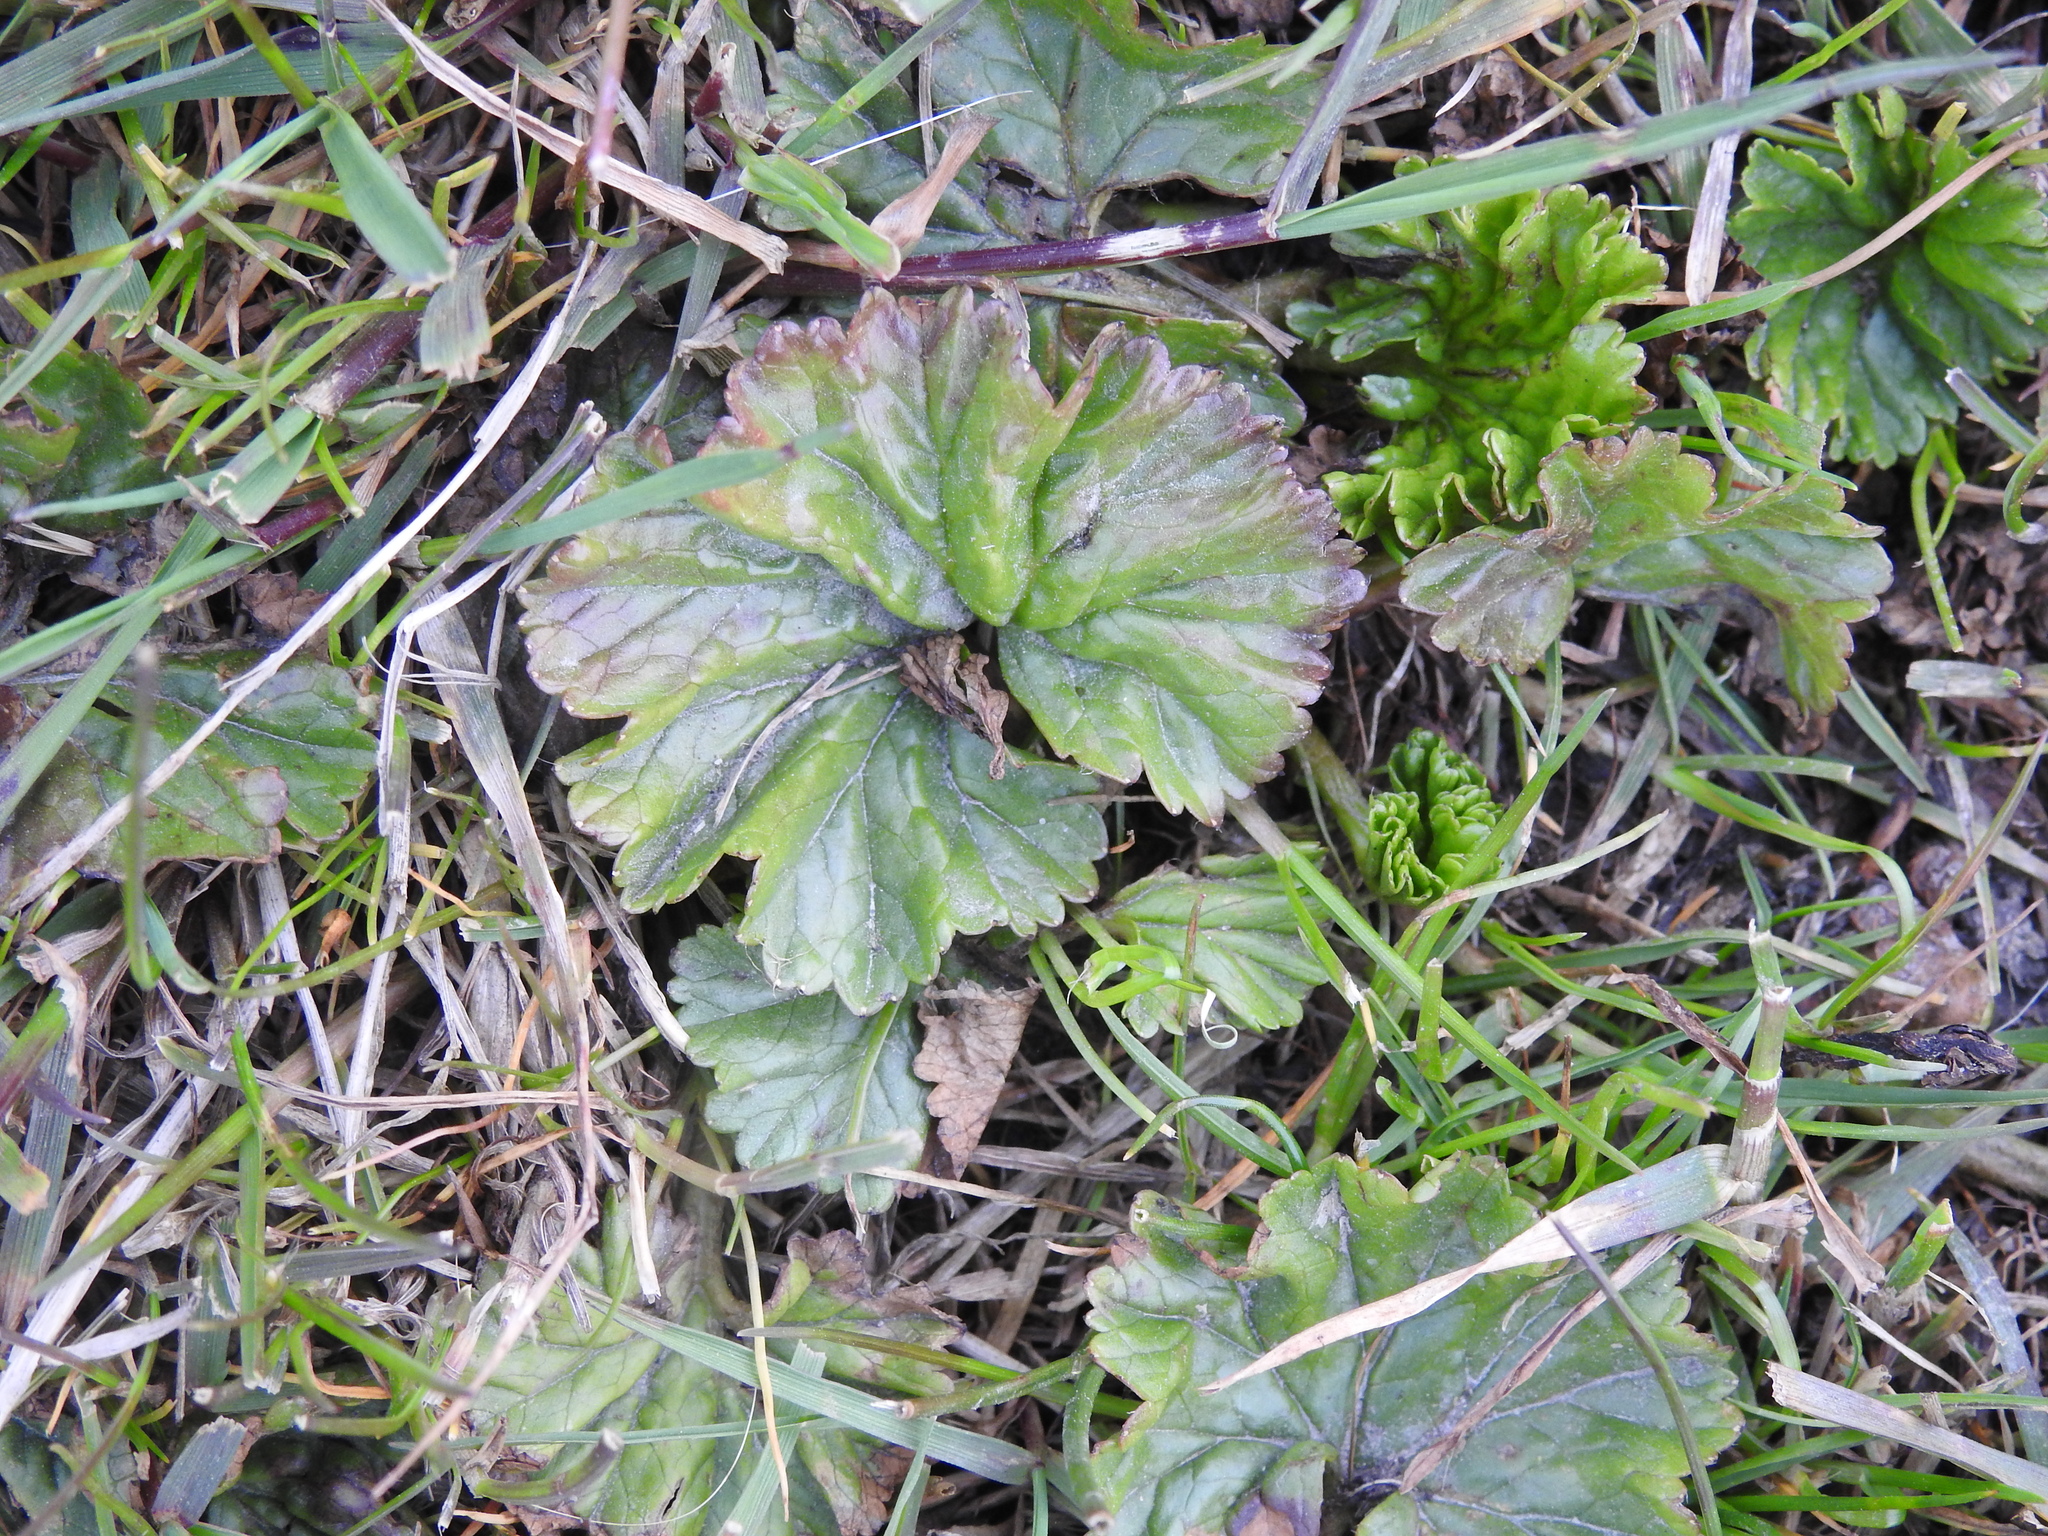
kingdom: Plantae
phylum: Tracheophyta
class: Magnoliopsida
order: Gunnerales
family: Gunneraceae
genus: Gunnera
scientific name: Gunnera magellanica
